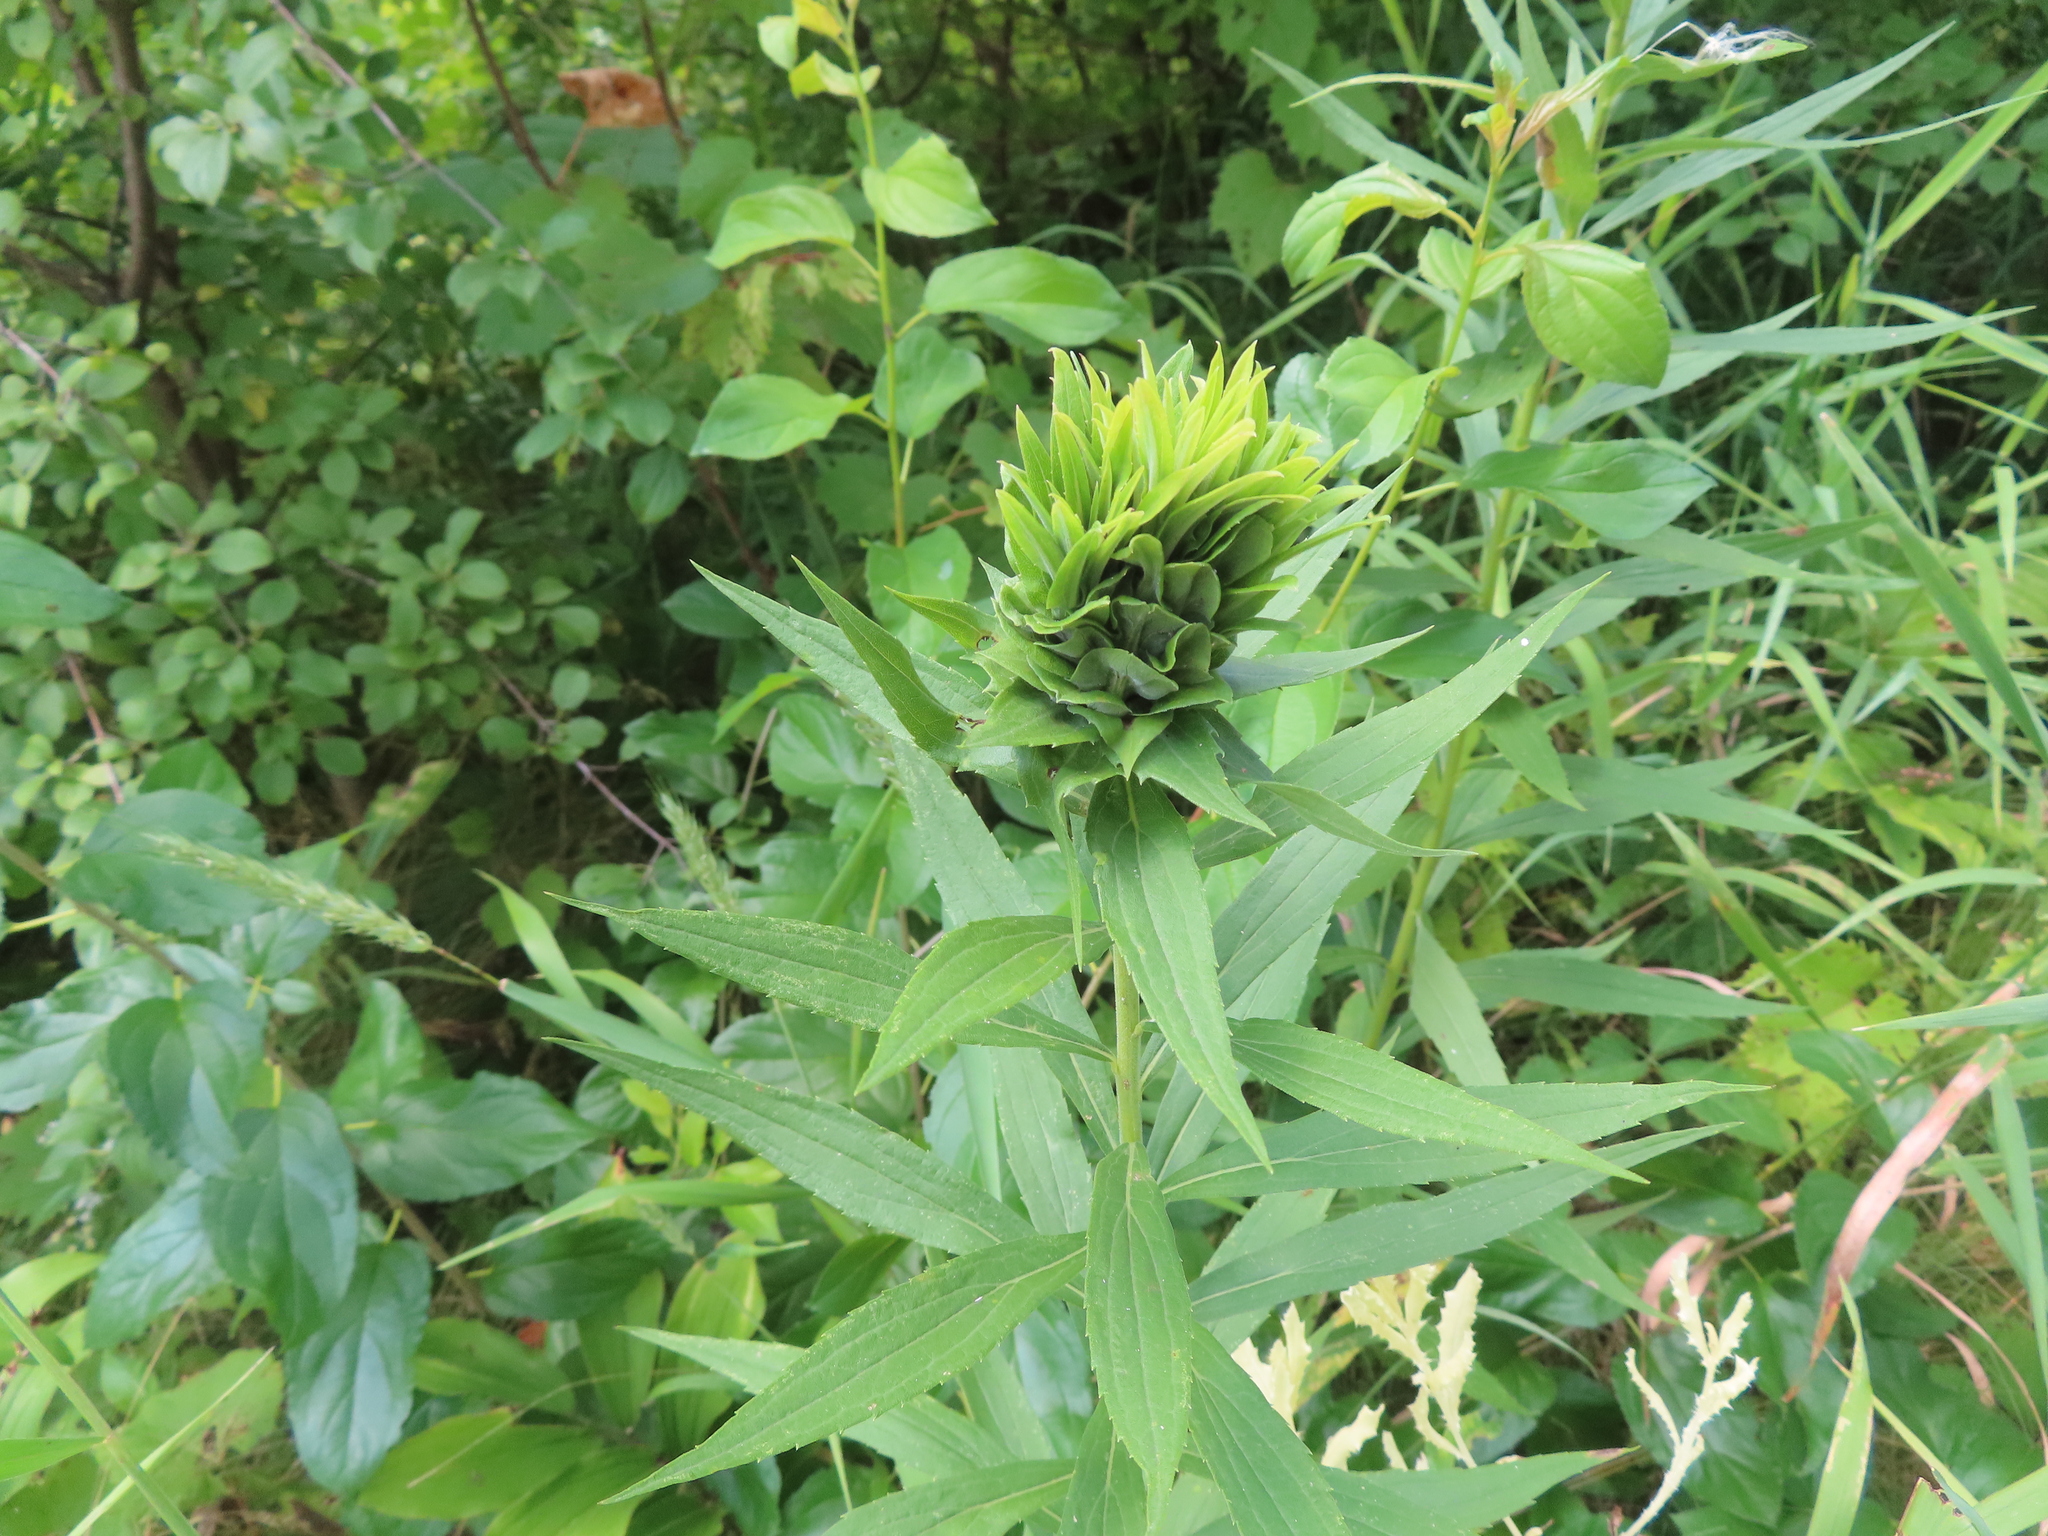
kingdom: Animalia
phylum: Arthropoda
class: Insecta
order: Diptera
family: Cecidomyiidae
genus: Rhopalomyia
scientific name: Rhopalomyia solidaginis
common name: Goldenrod bunch gall midge
